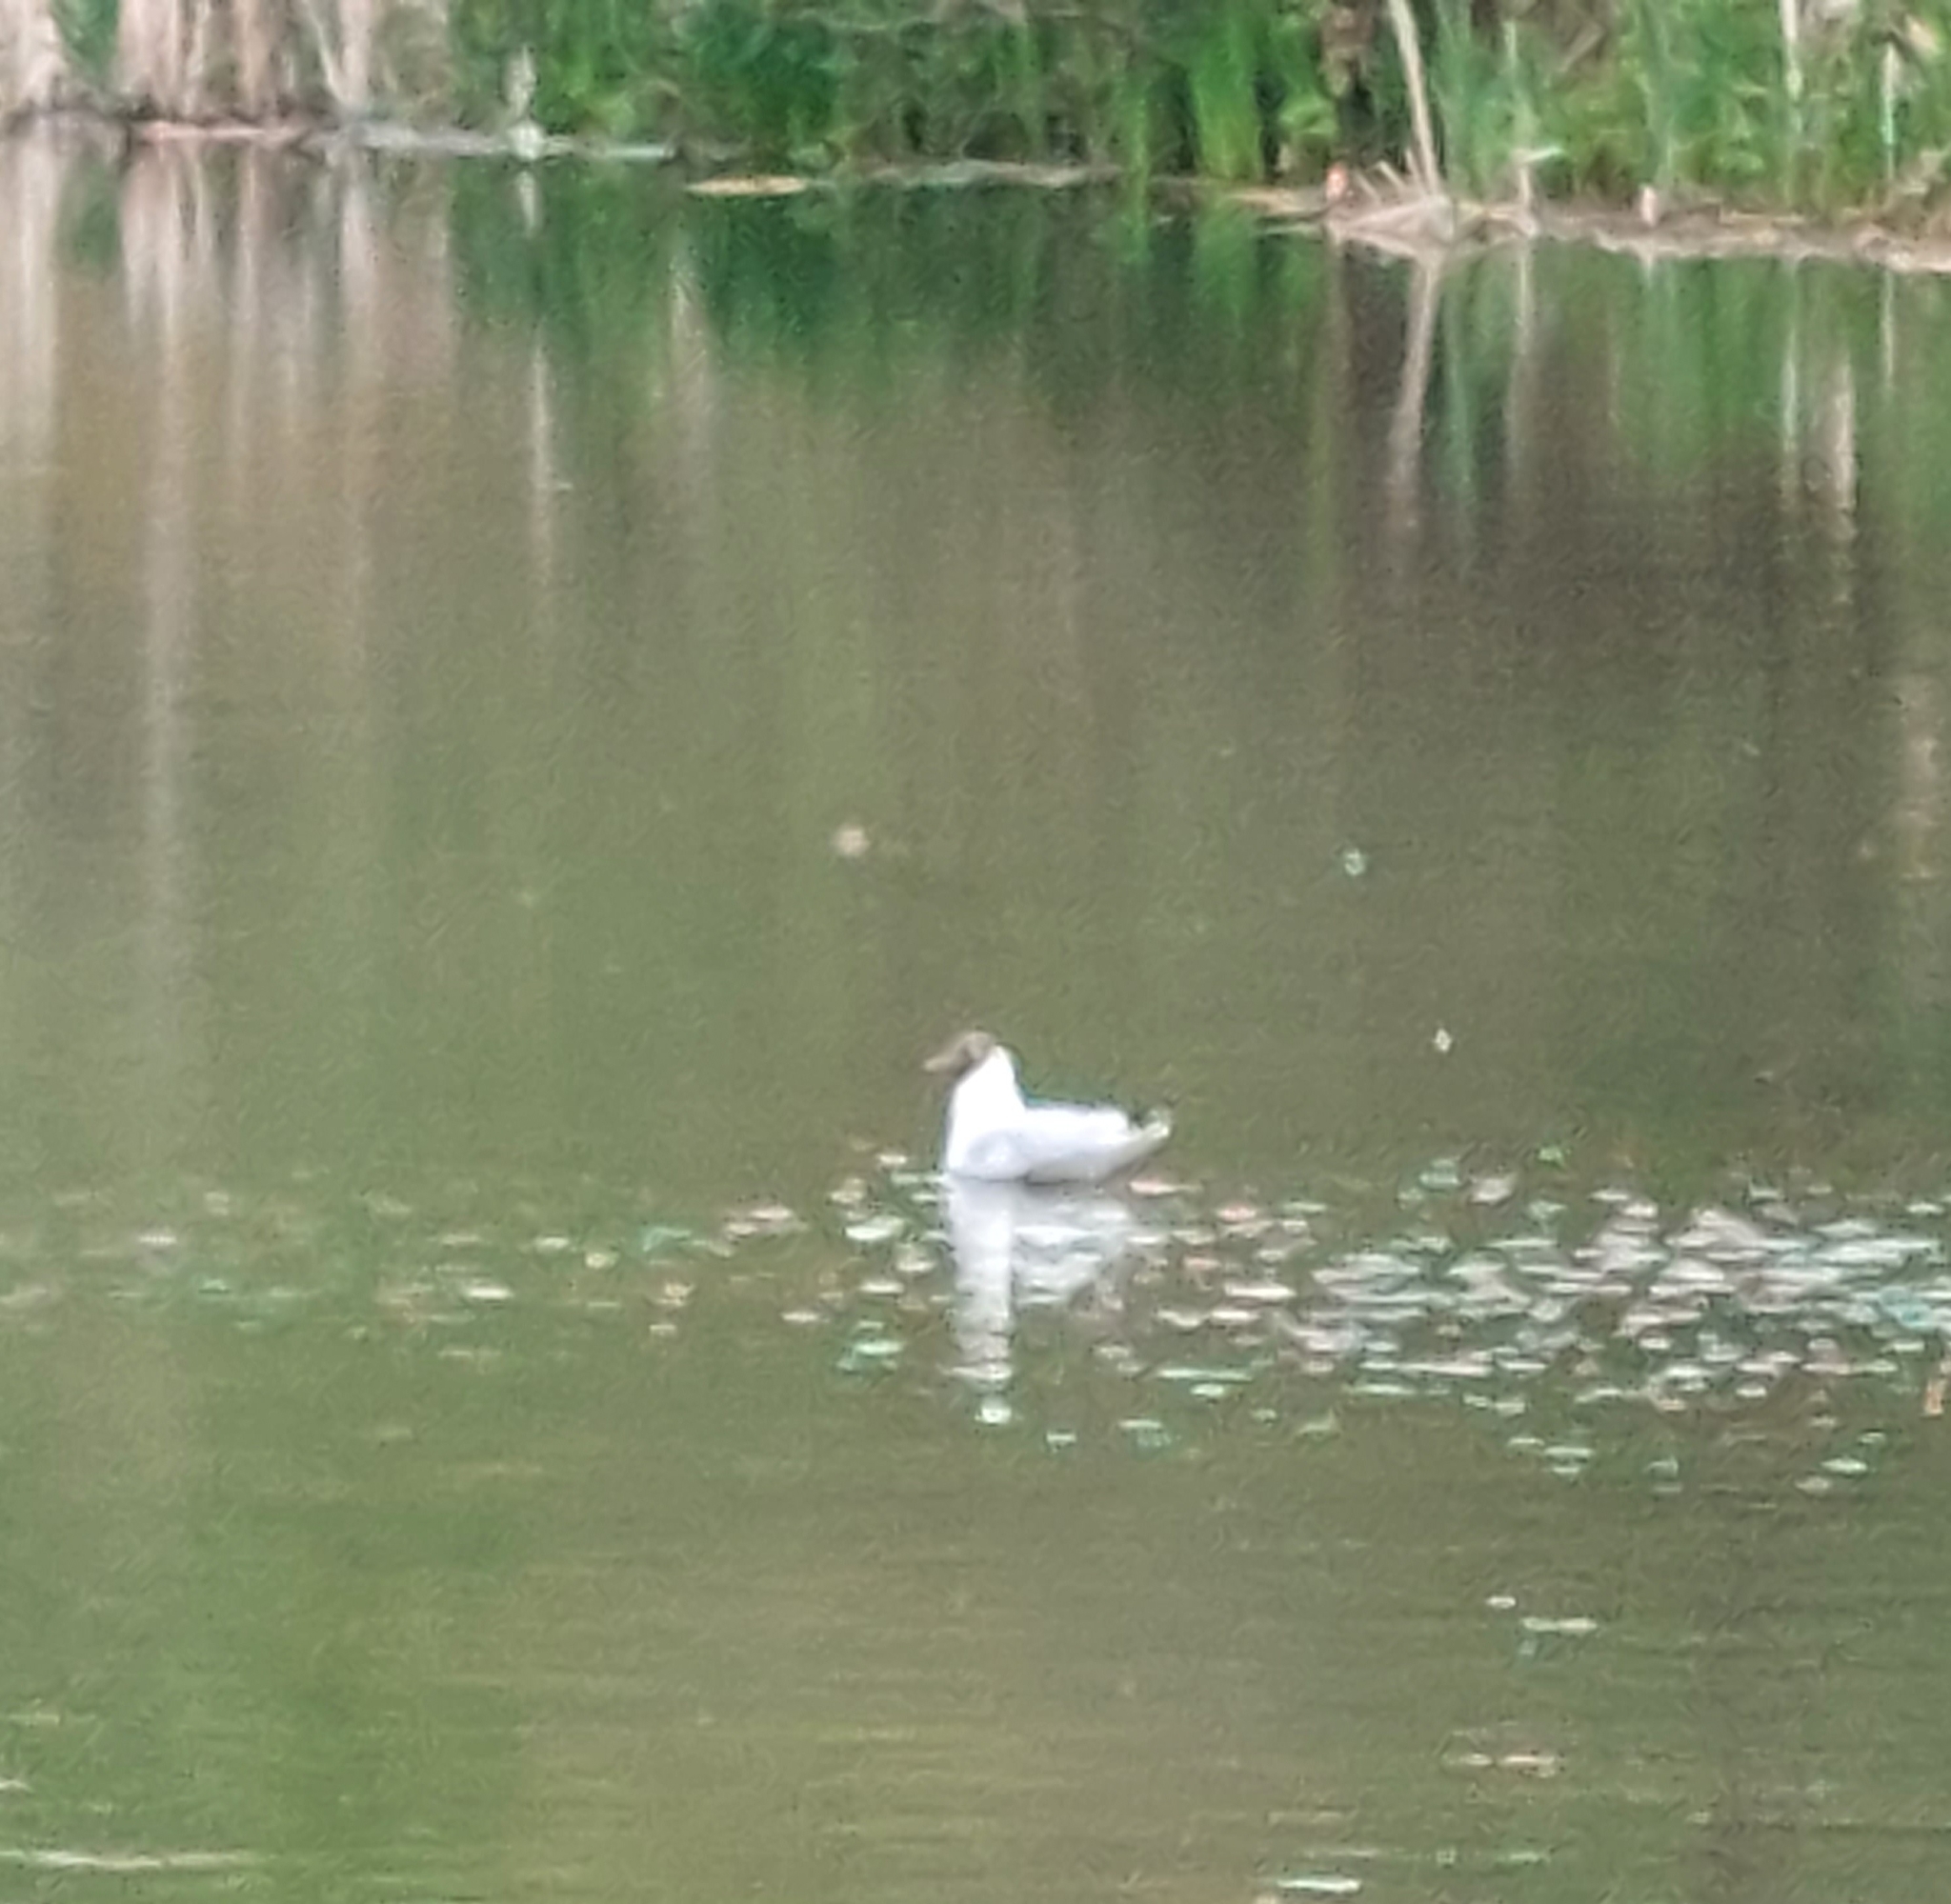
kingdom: Animalia
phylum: Chordata
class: Aves
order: Charadriiformes
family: Laridae
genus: Chroicocephalus
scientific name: Chroicocephalus ridibundus
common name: Black-headed gull
